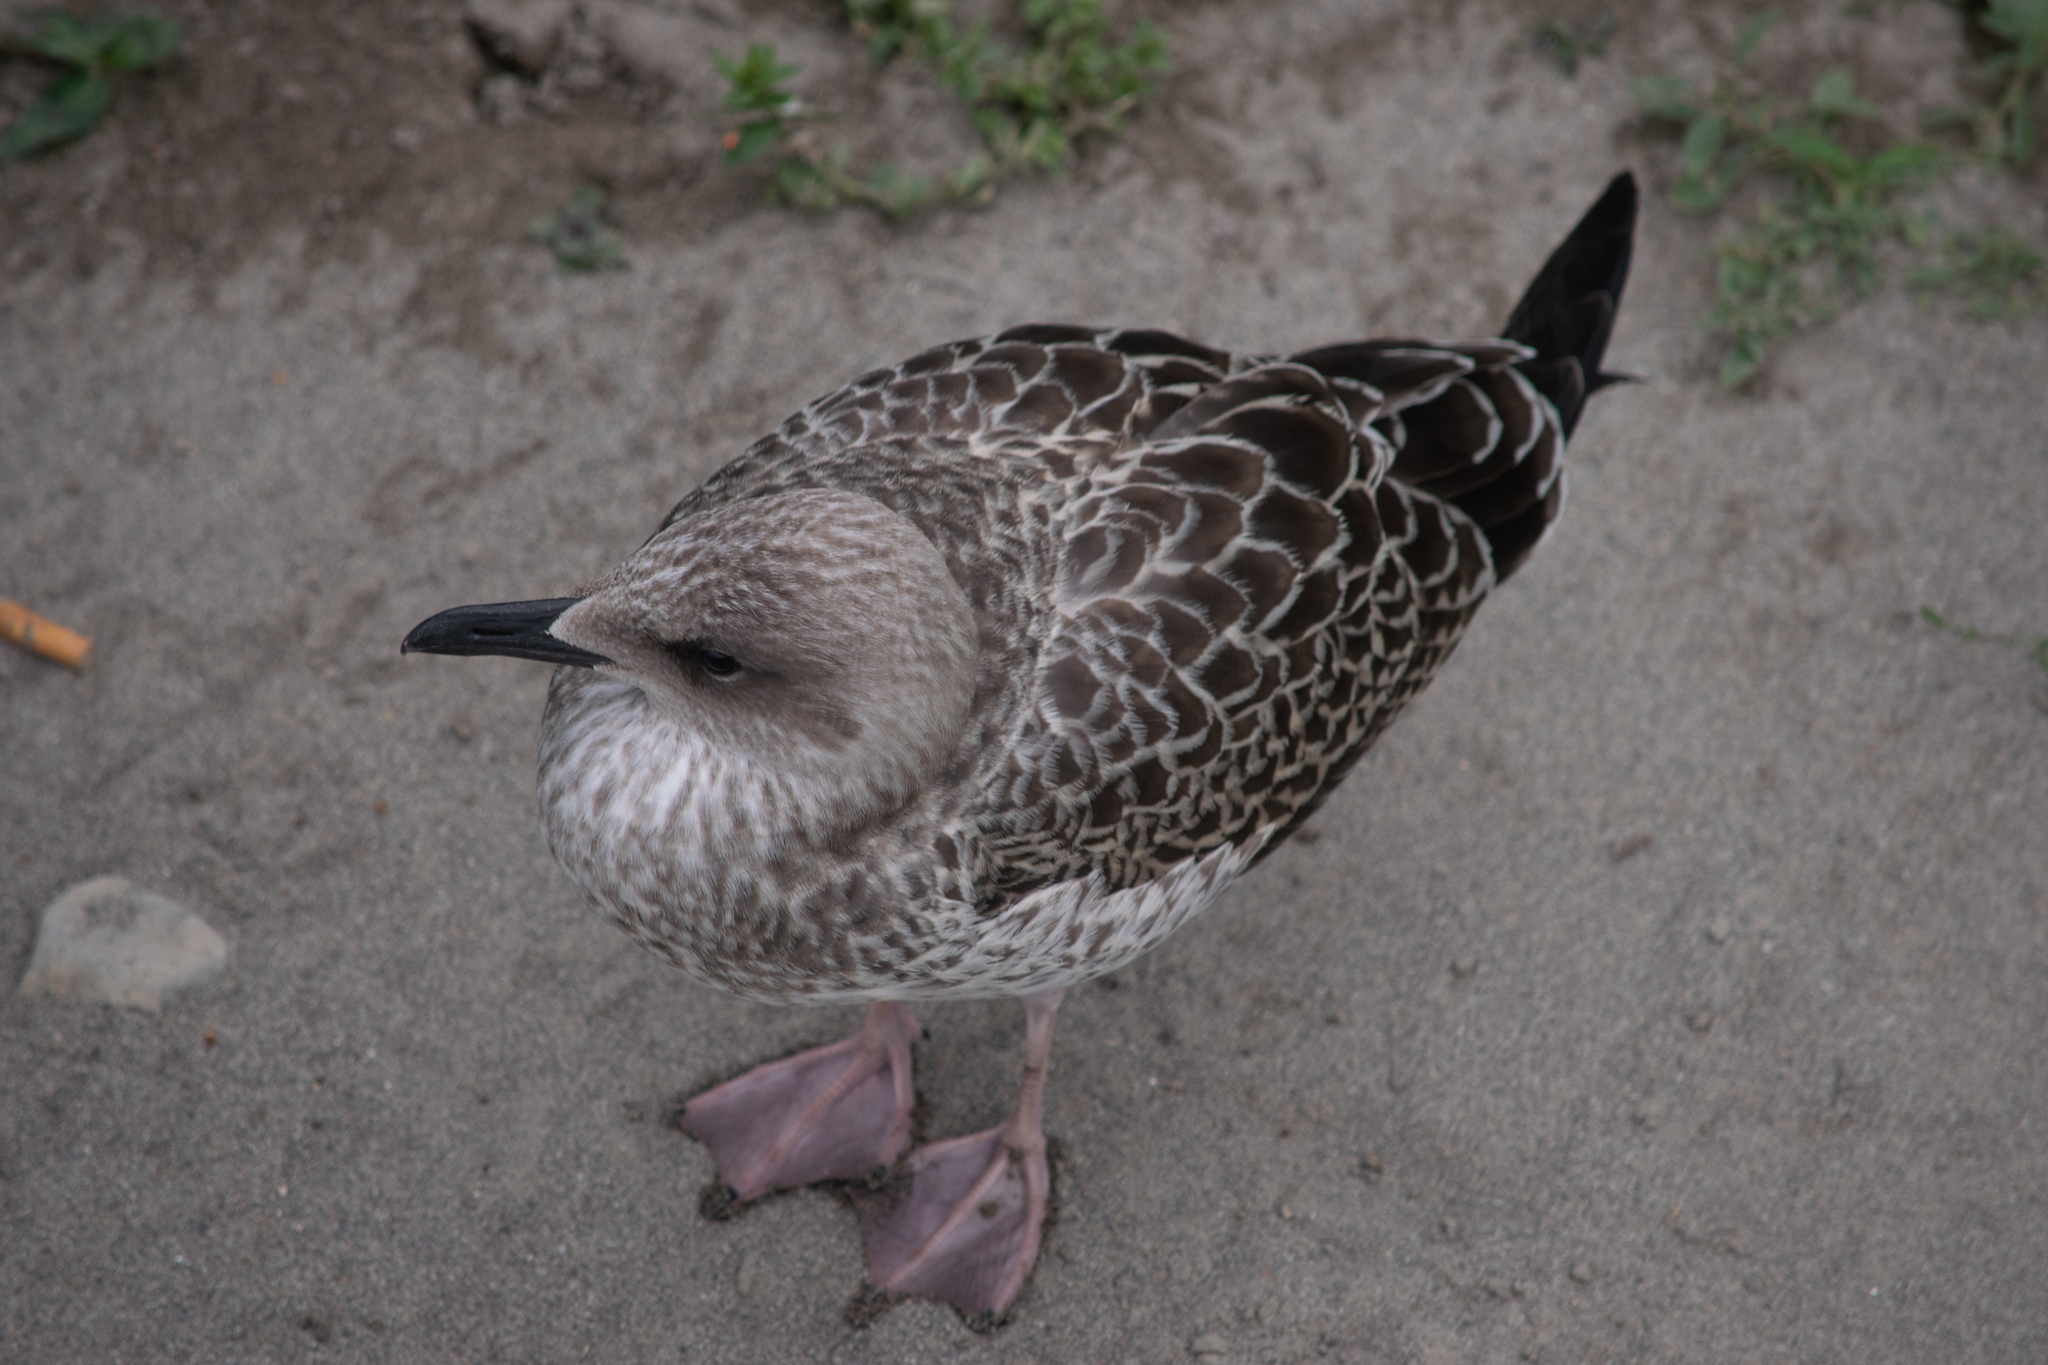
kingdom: Animalia
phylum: Chordata
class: Aves
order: Charadriiformes
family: Laridae
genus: Larus
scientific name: Larus michahellis
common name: Yellow-legged gull
